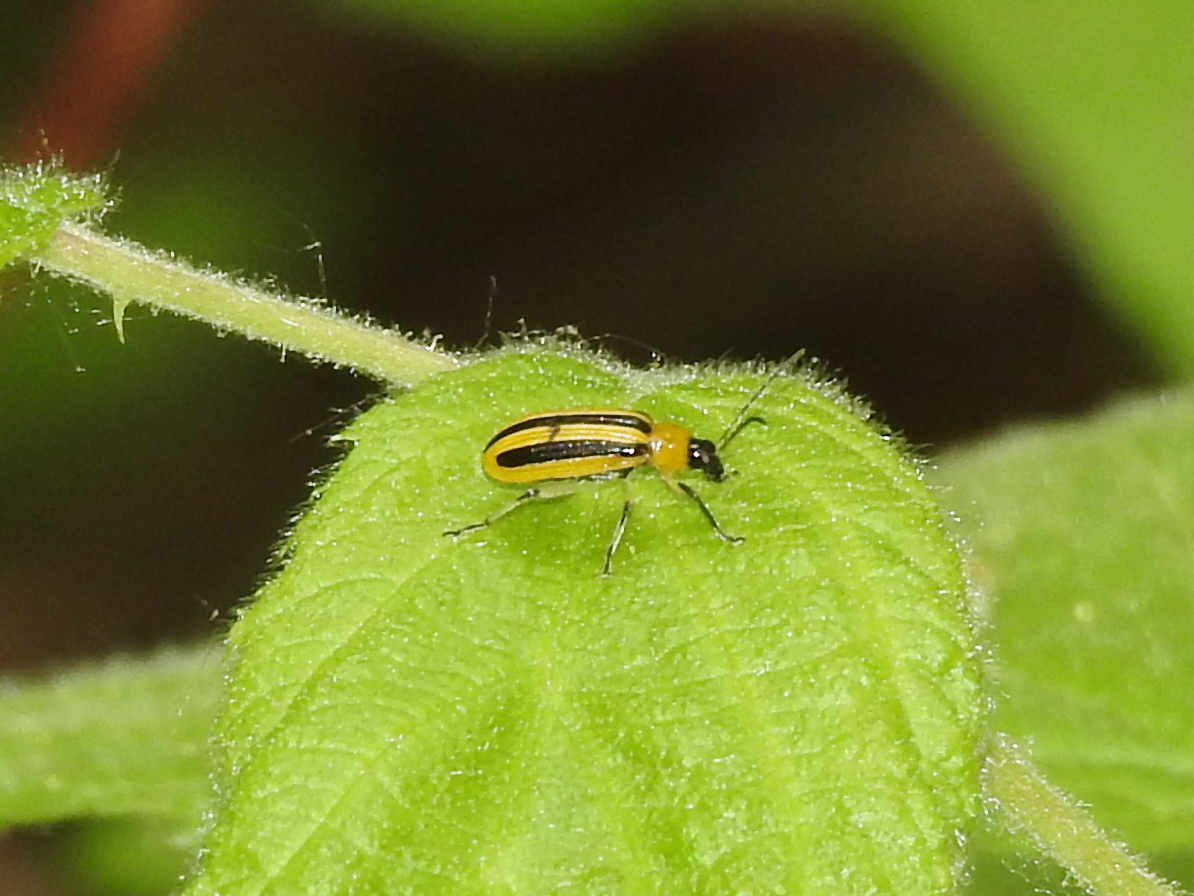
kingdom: Animalia
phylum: Arthropoda
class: Insecta
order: Coleoptera
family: Chrysomelidae
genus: Acalymma
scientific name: Acalymma vittatum
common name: Striped cucumber beetle
